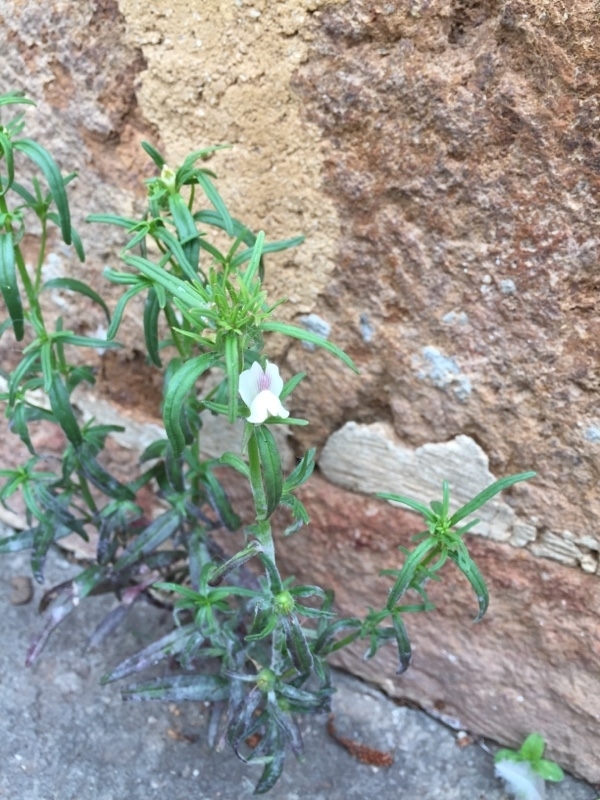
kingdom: Plantae
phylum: Tracheophyta
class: Magnoliopsida
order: Lamiales
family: Plantaginaceae
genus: Misopates
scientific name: Misopates orontium
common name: Weasel's-snout
